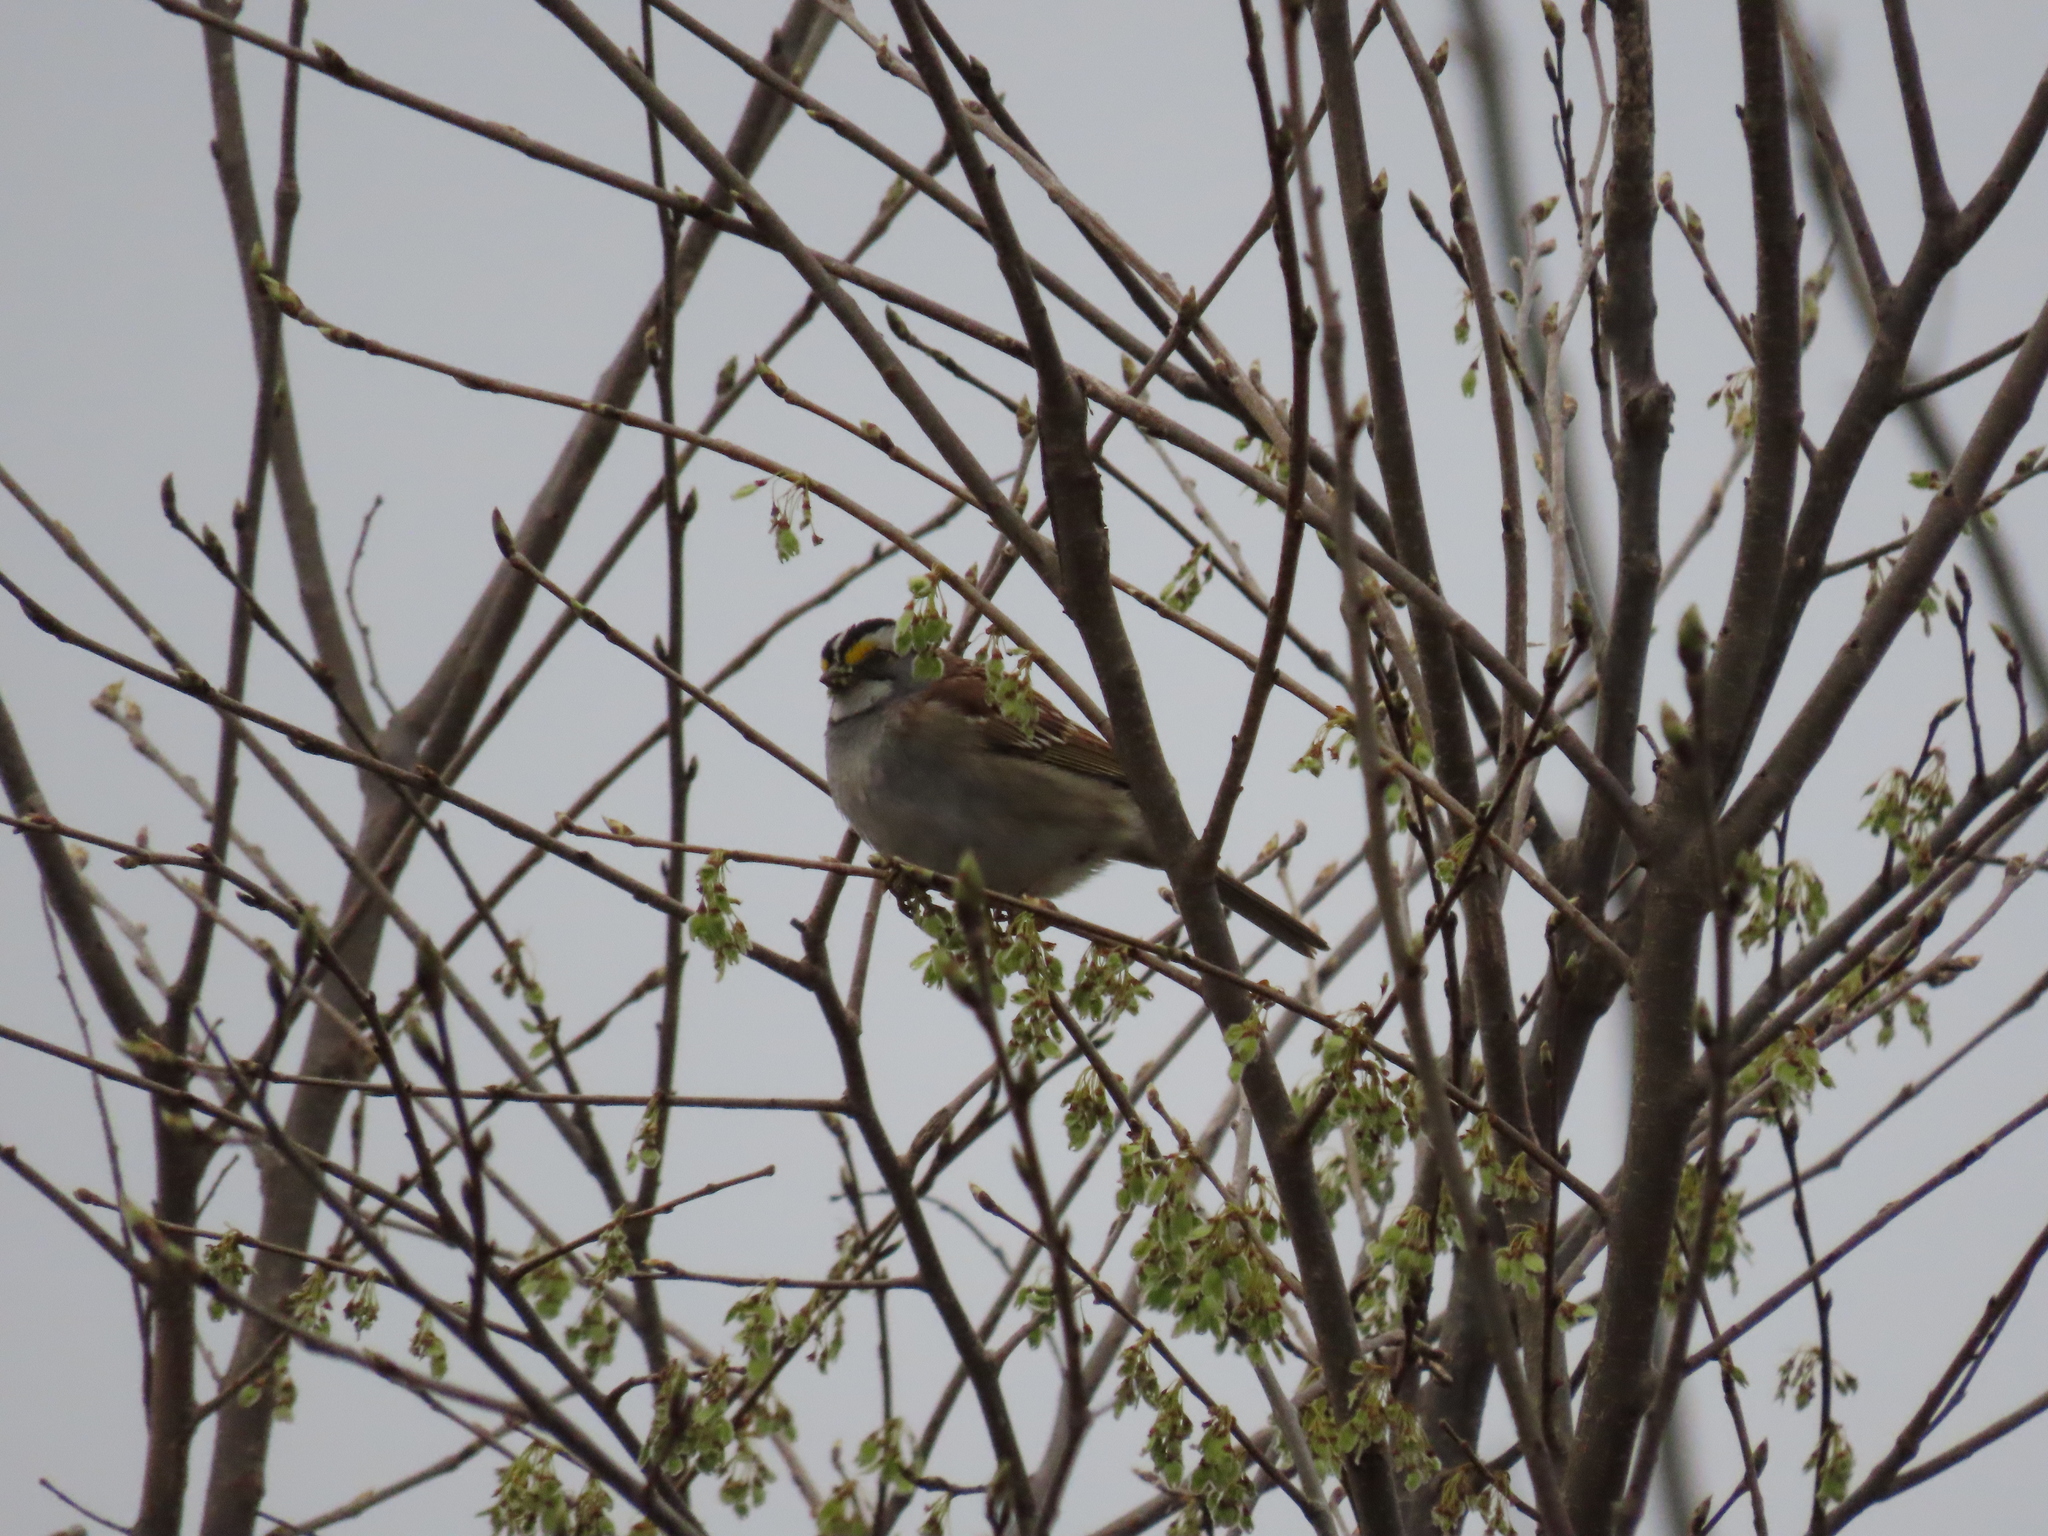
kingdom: Animalia
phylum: Chordata
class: Aves
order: Passeriformes
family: Passerellidae
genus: Zonotrichia
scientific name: Zonotrichia albicollis
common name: White-throated sparrow
